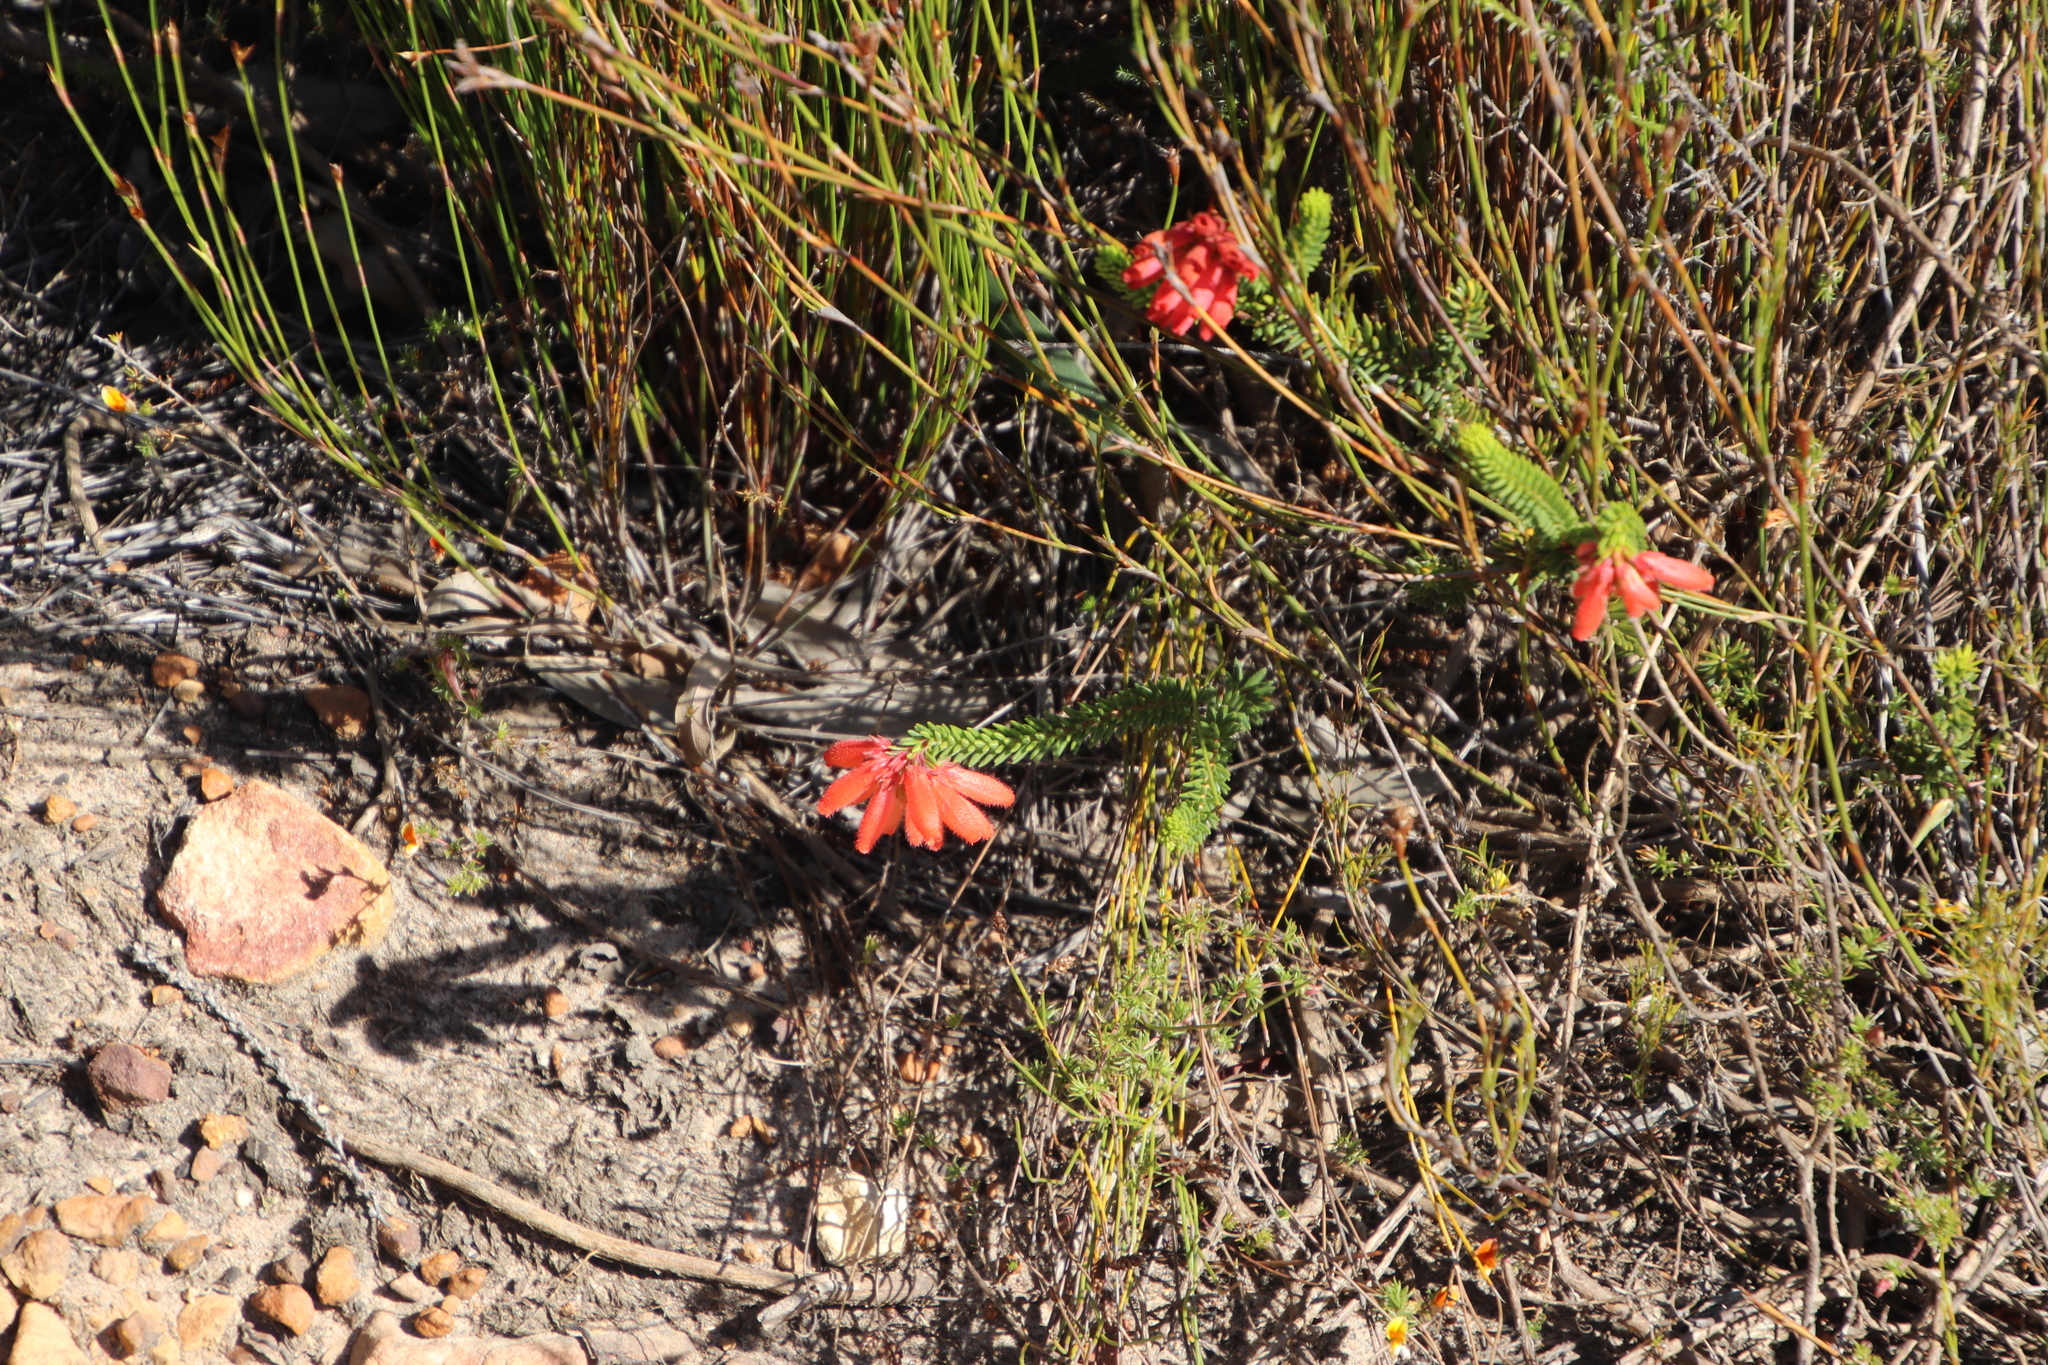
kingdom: Plantae
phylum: Tracheophyta
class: Magnoliopsida
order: Ericales
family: Ericaceae
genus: Erica
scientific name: Erica cerinthoides
